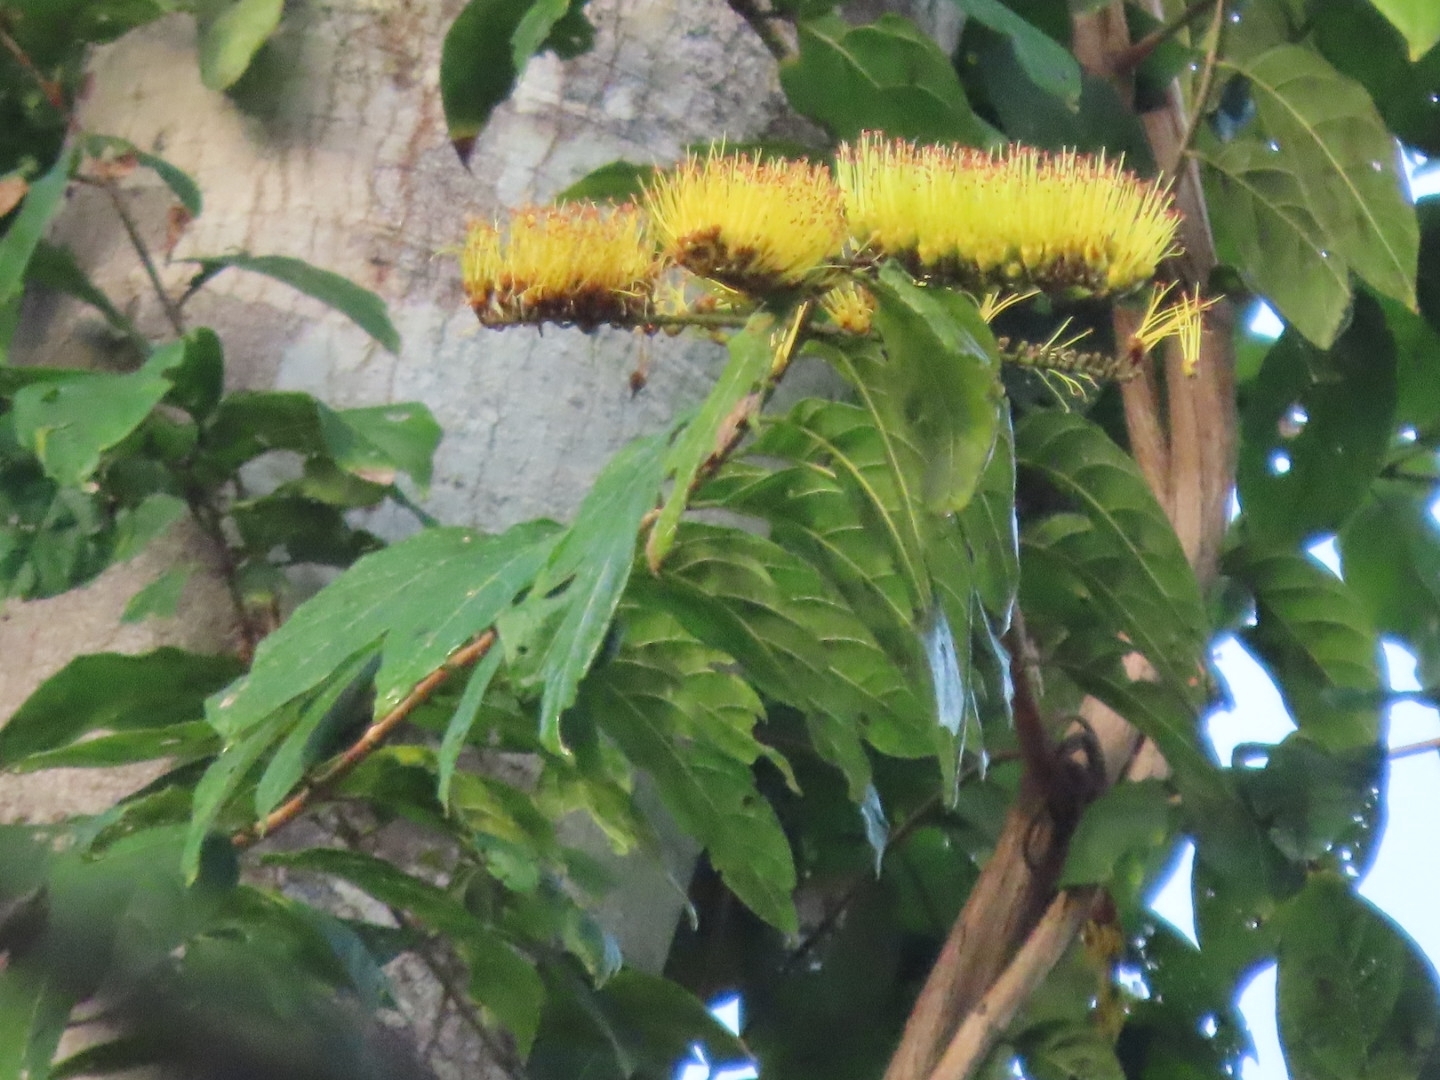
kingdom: Plantae
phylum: Tracheophyta
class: Magnoliopsida
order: Myrtales
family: Combretaceae
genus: Combretum
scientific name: Combretum fruticosum
